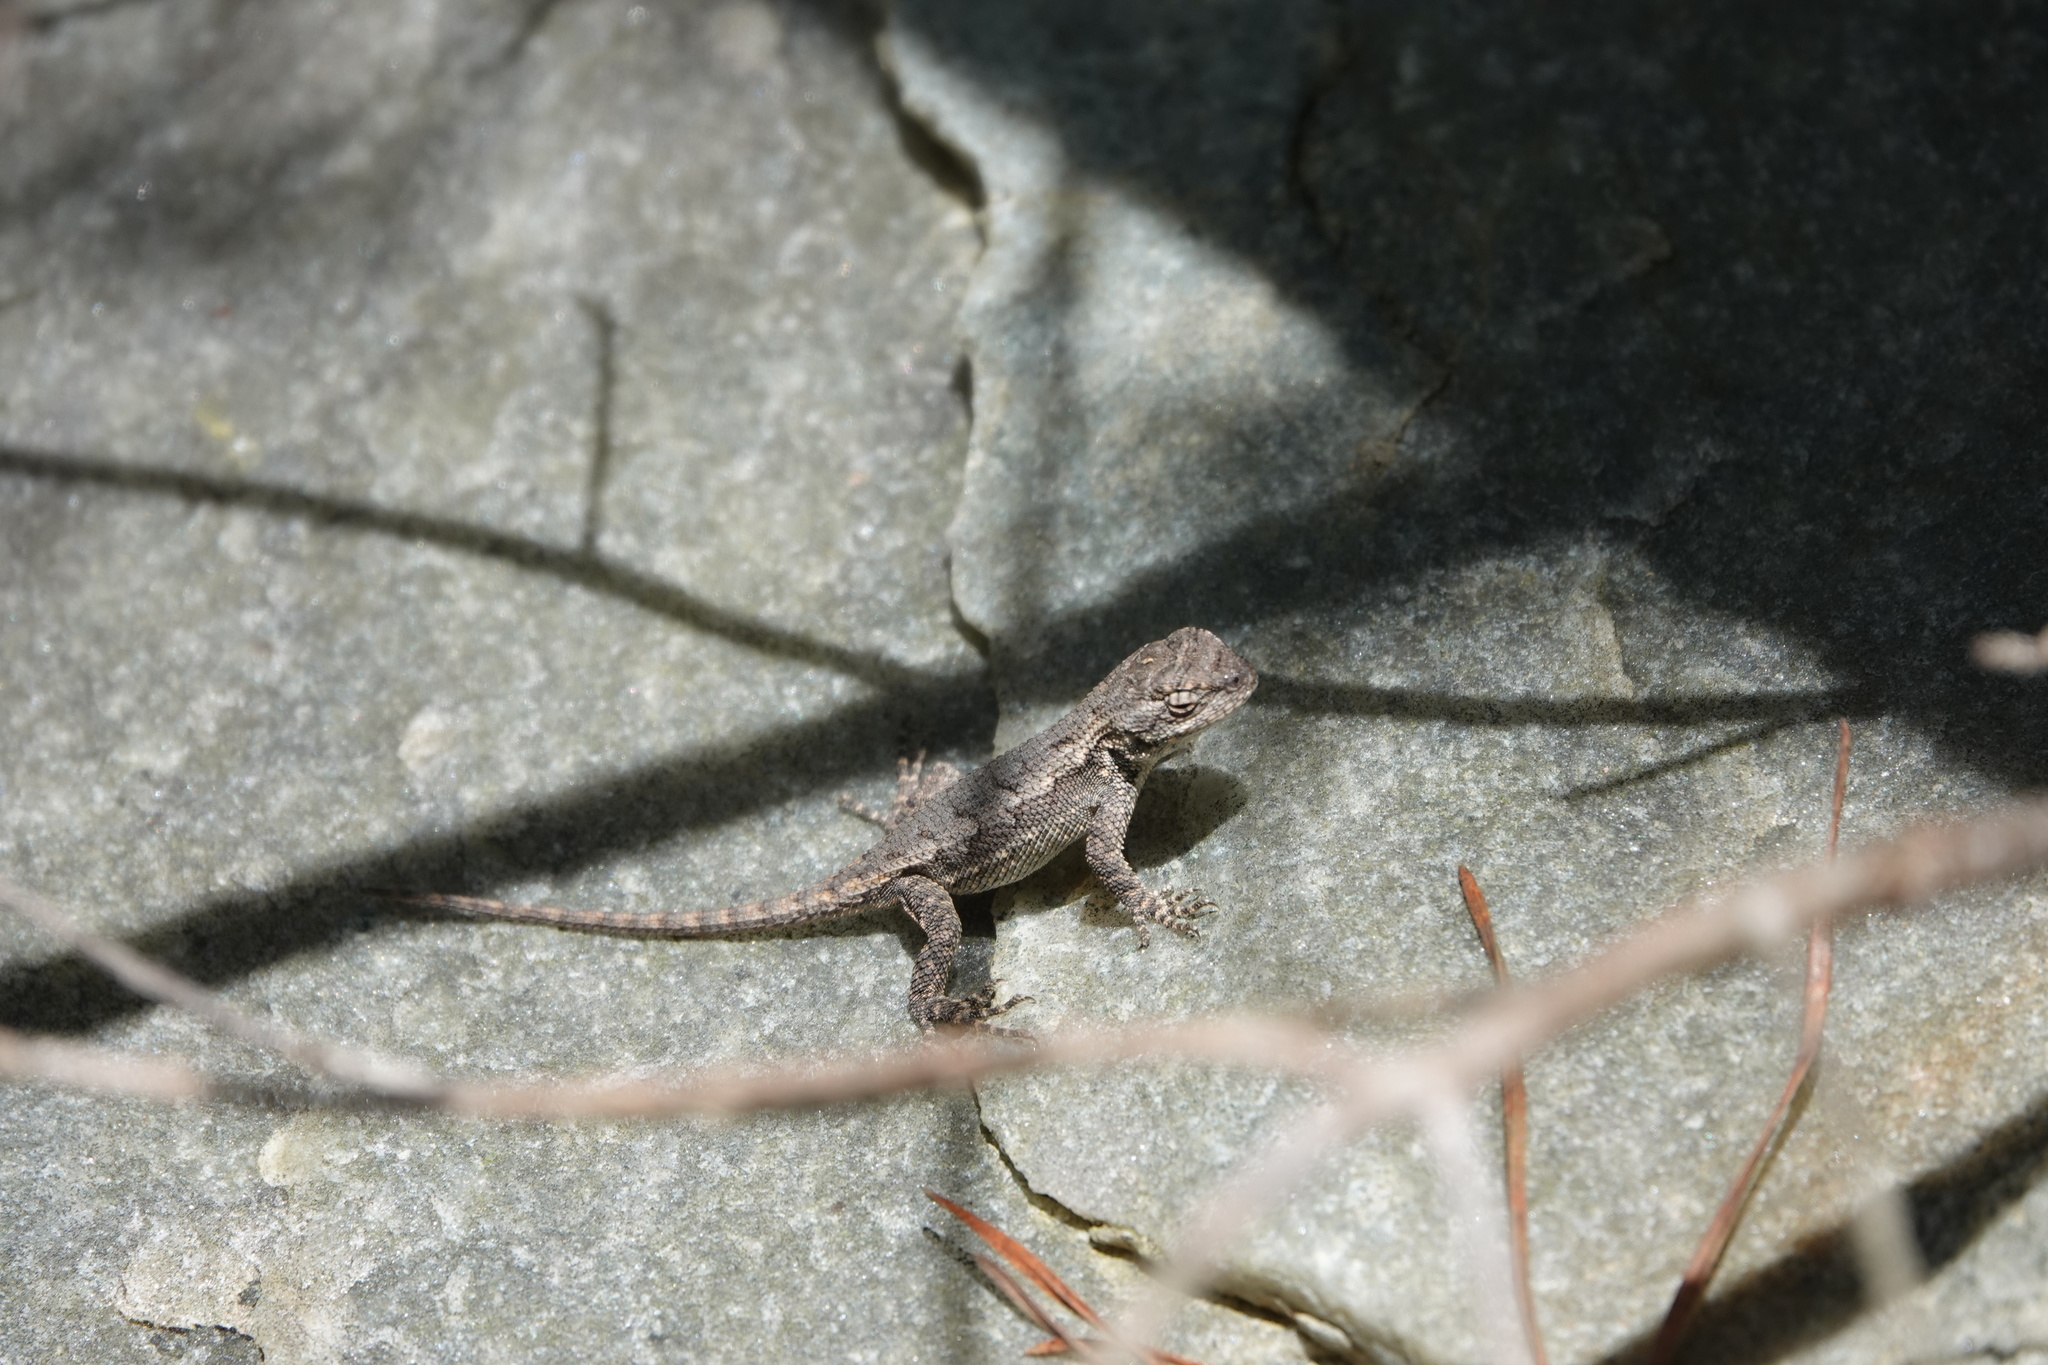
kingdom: Animalia
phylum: Chordata
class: Squamata
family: Phrynosomatidae
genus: Sceloporus
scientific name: Sceloporus undulatus
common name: Eastern fence lizard
